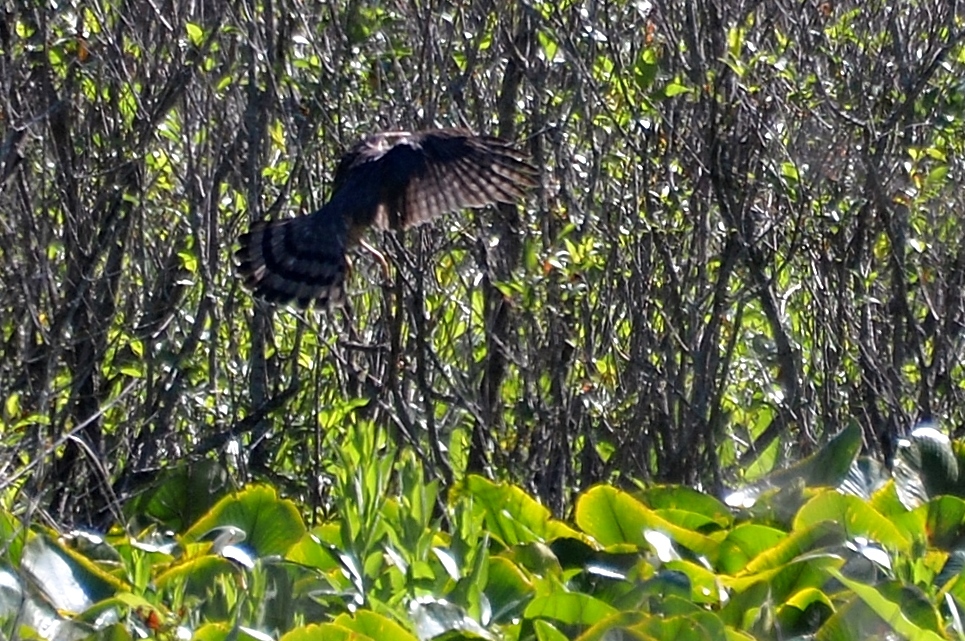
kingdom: Animalia
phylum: Chordata
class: Aves
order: Accipitriformes
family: Accipitridae
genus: Accipiter
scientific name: Accipiter cooperii
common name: Cooper's hawk
